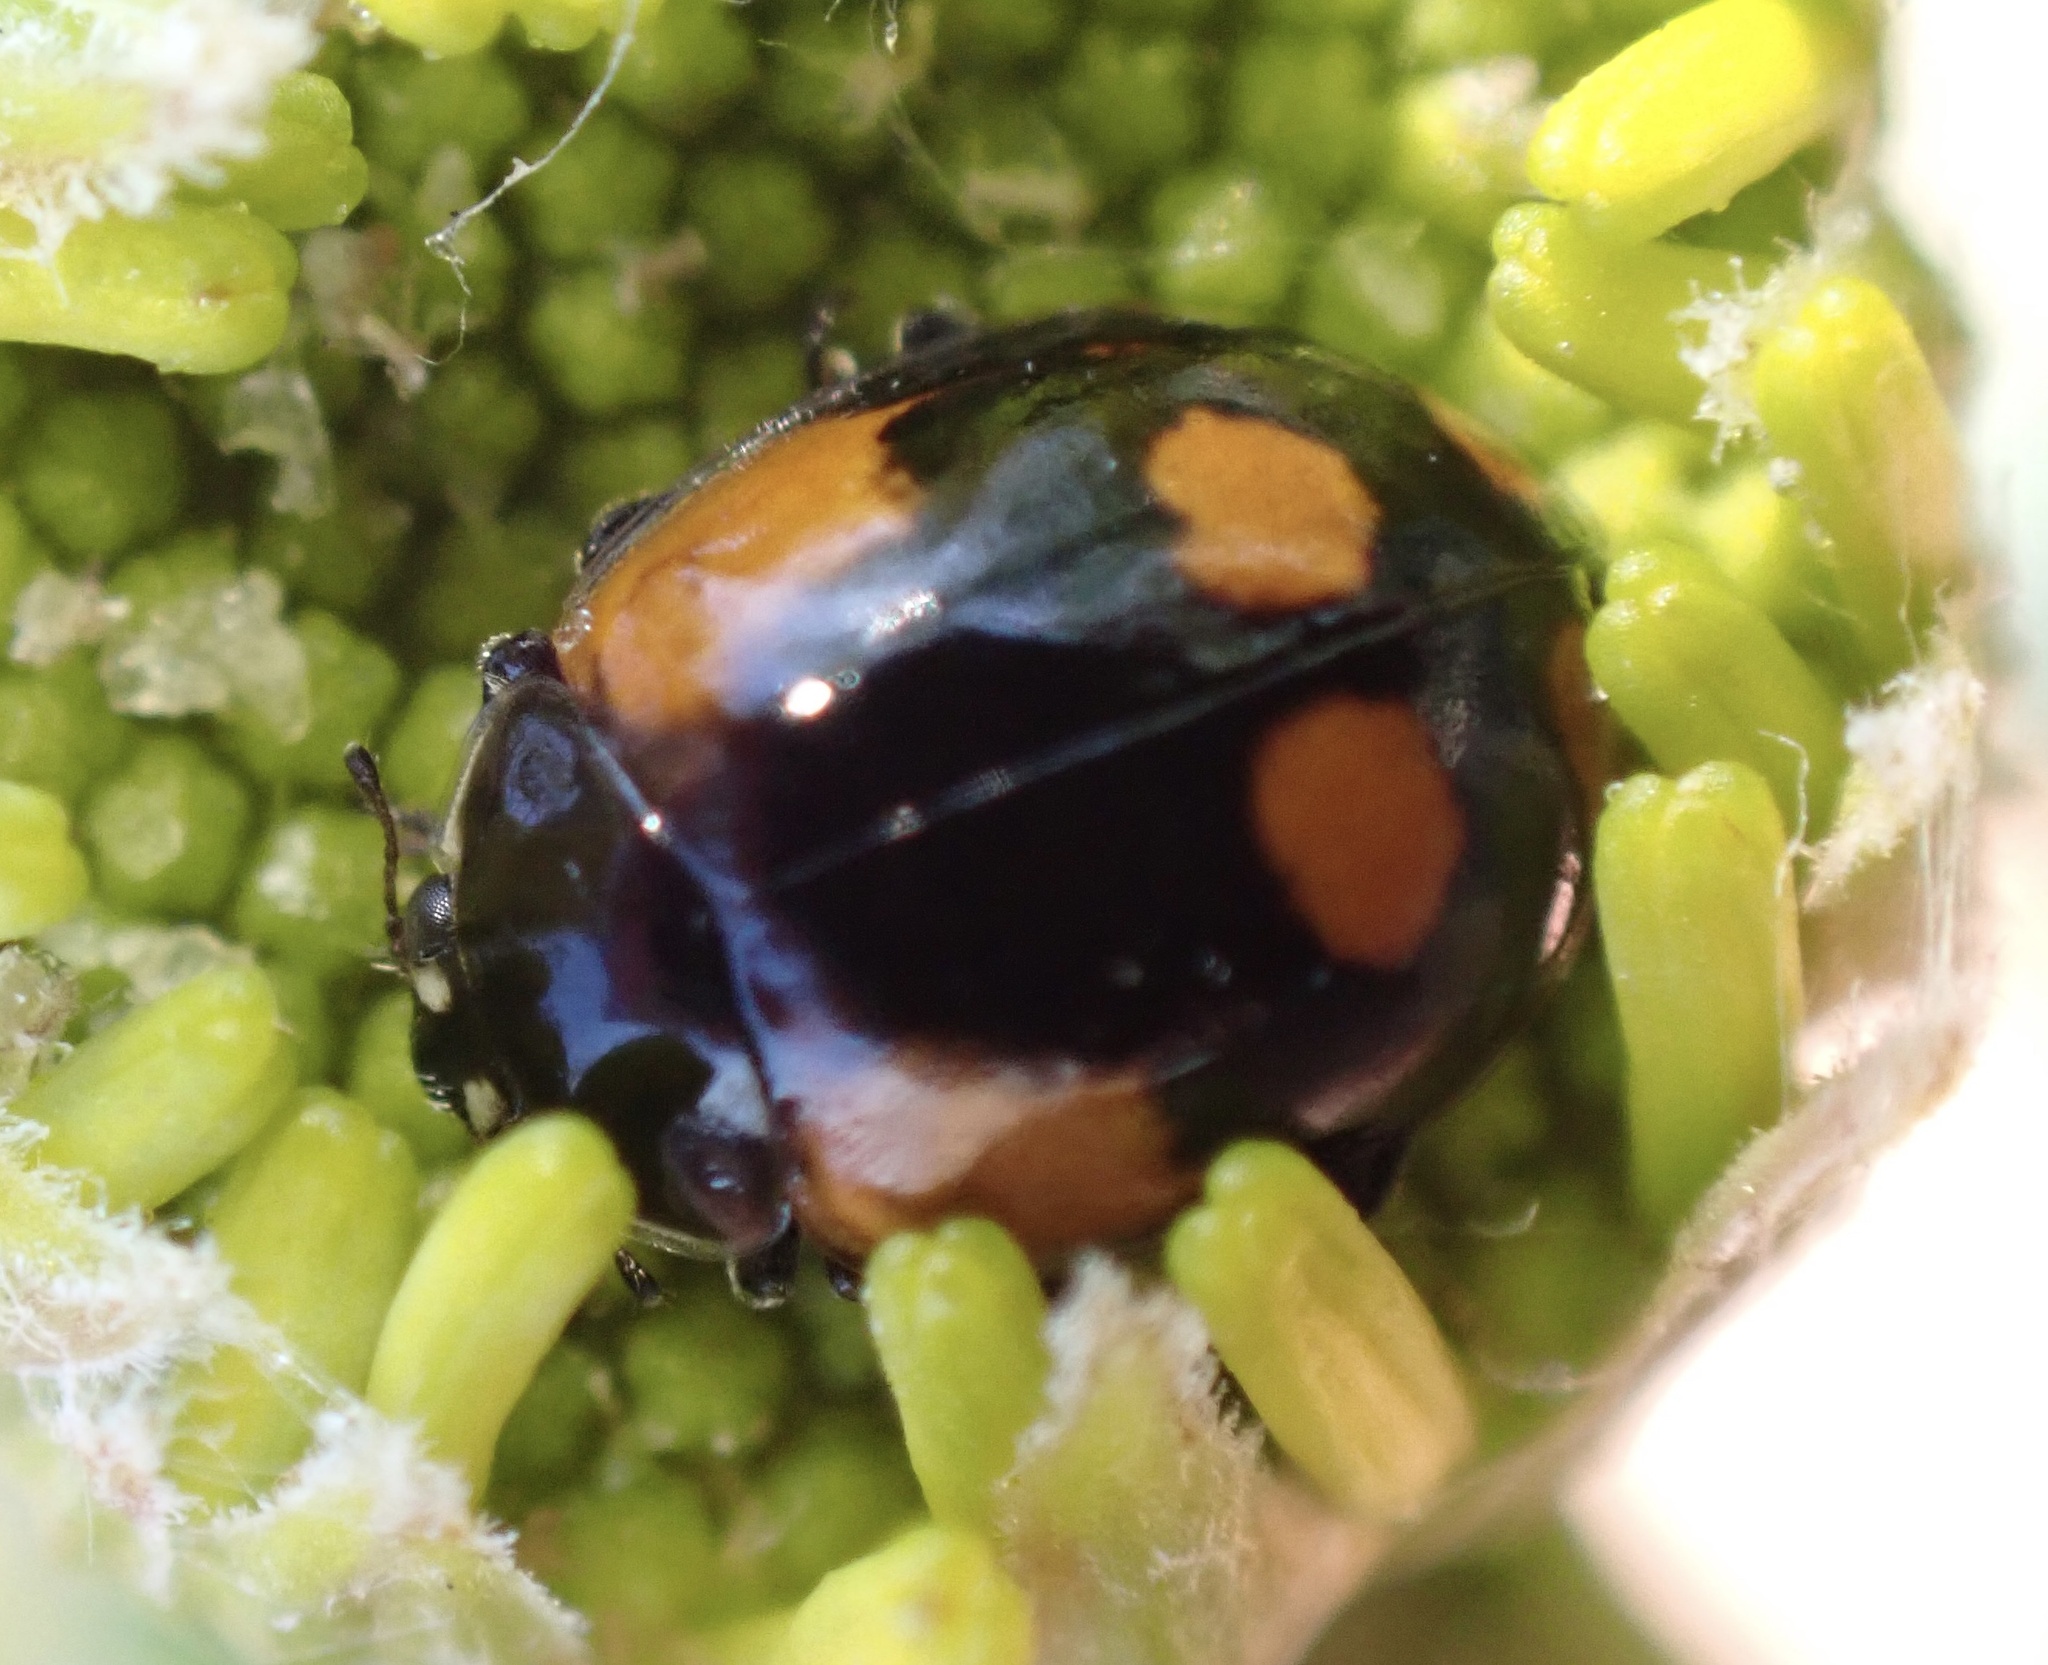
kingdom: Animalia
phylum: Arthropoda
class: Insecta
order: Coleoptera
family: Coccinellidae
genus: Adalia
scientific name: Adalia bipunctata
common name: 2-spot ladybird
